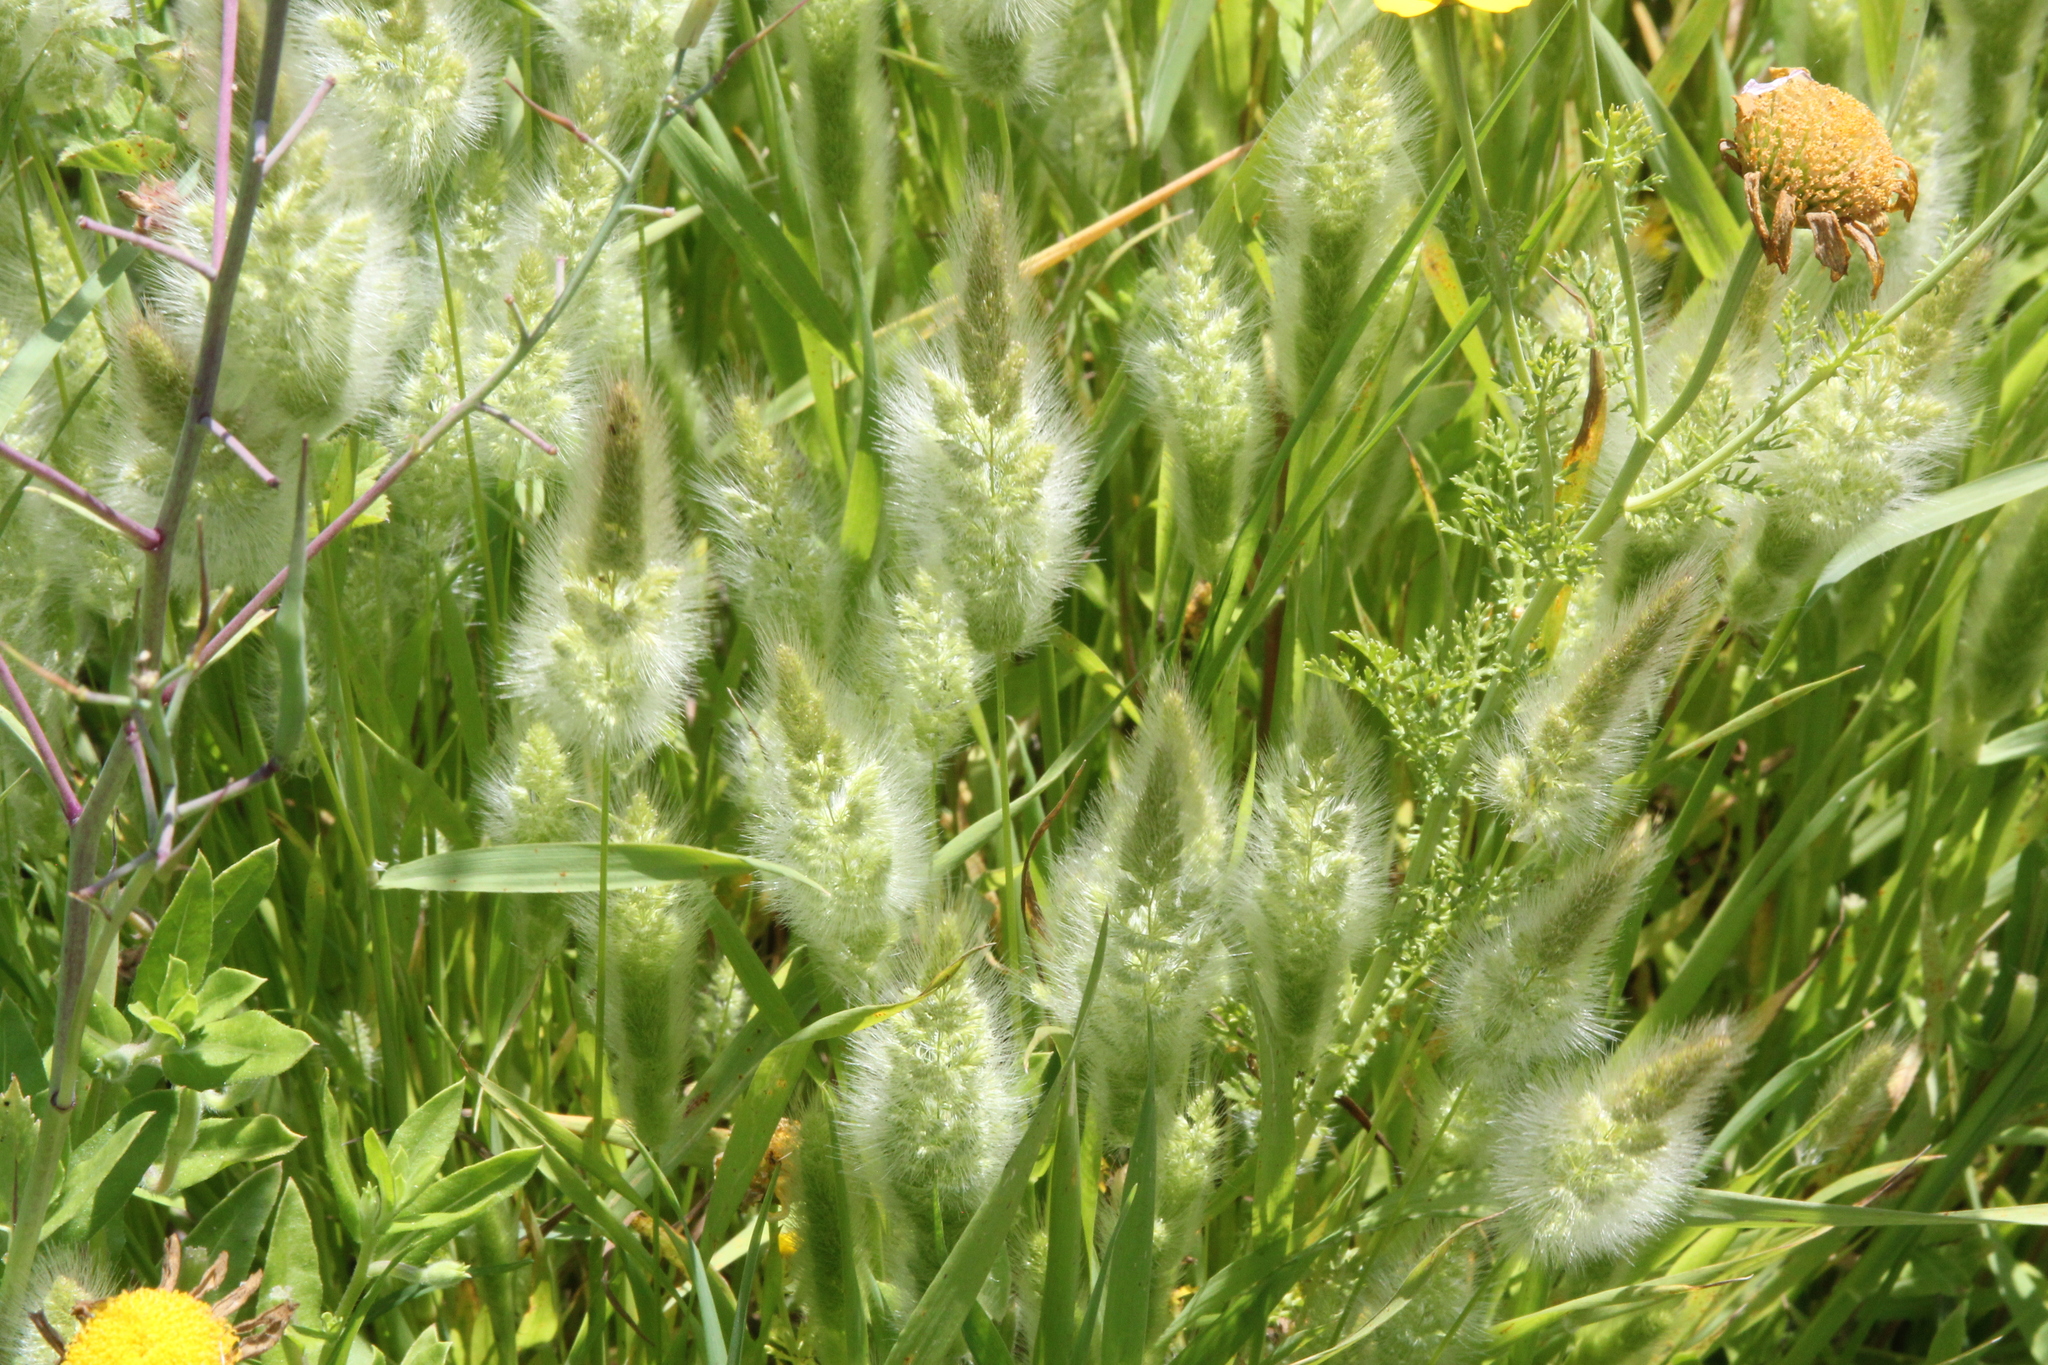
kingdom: Plantae
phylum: Tracheophyta
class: Liliopsida
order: Poales
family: Poaceae
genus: Polypogon
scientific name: Polypogon monspeliensis
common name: Annual rabbitsfoot grass
